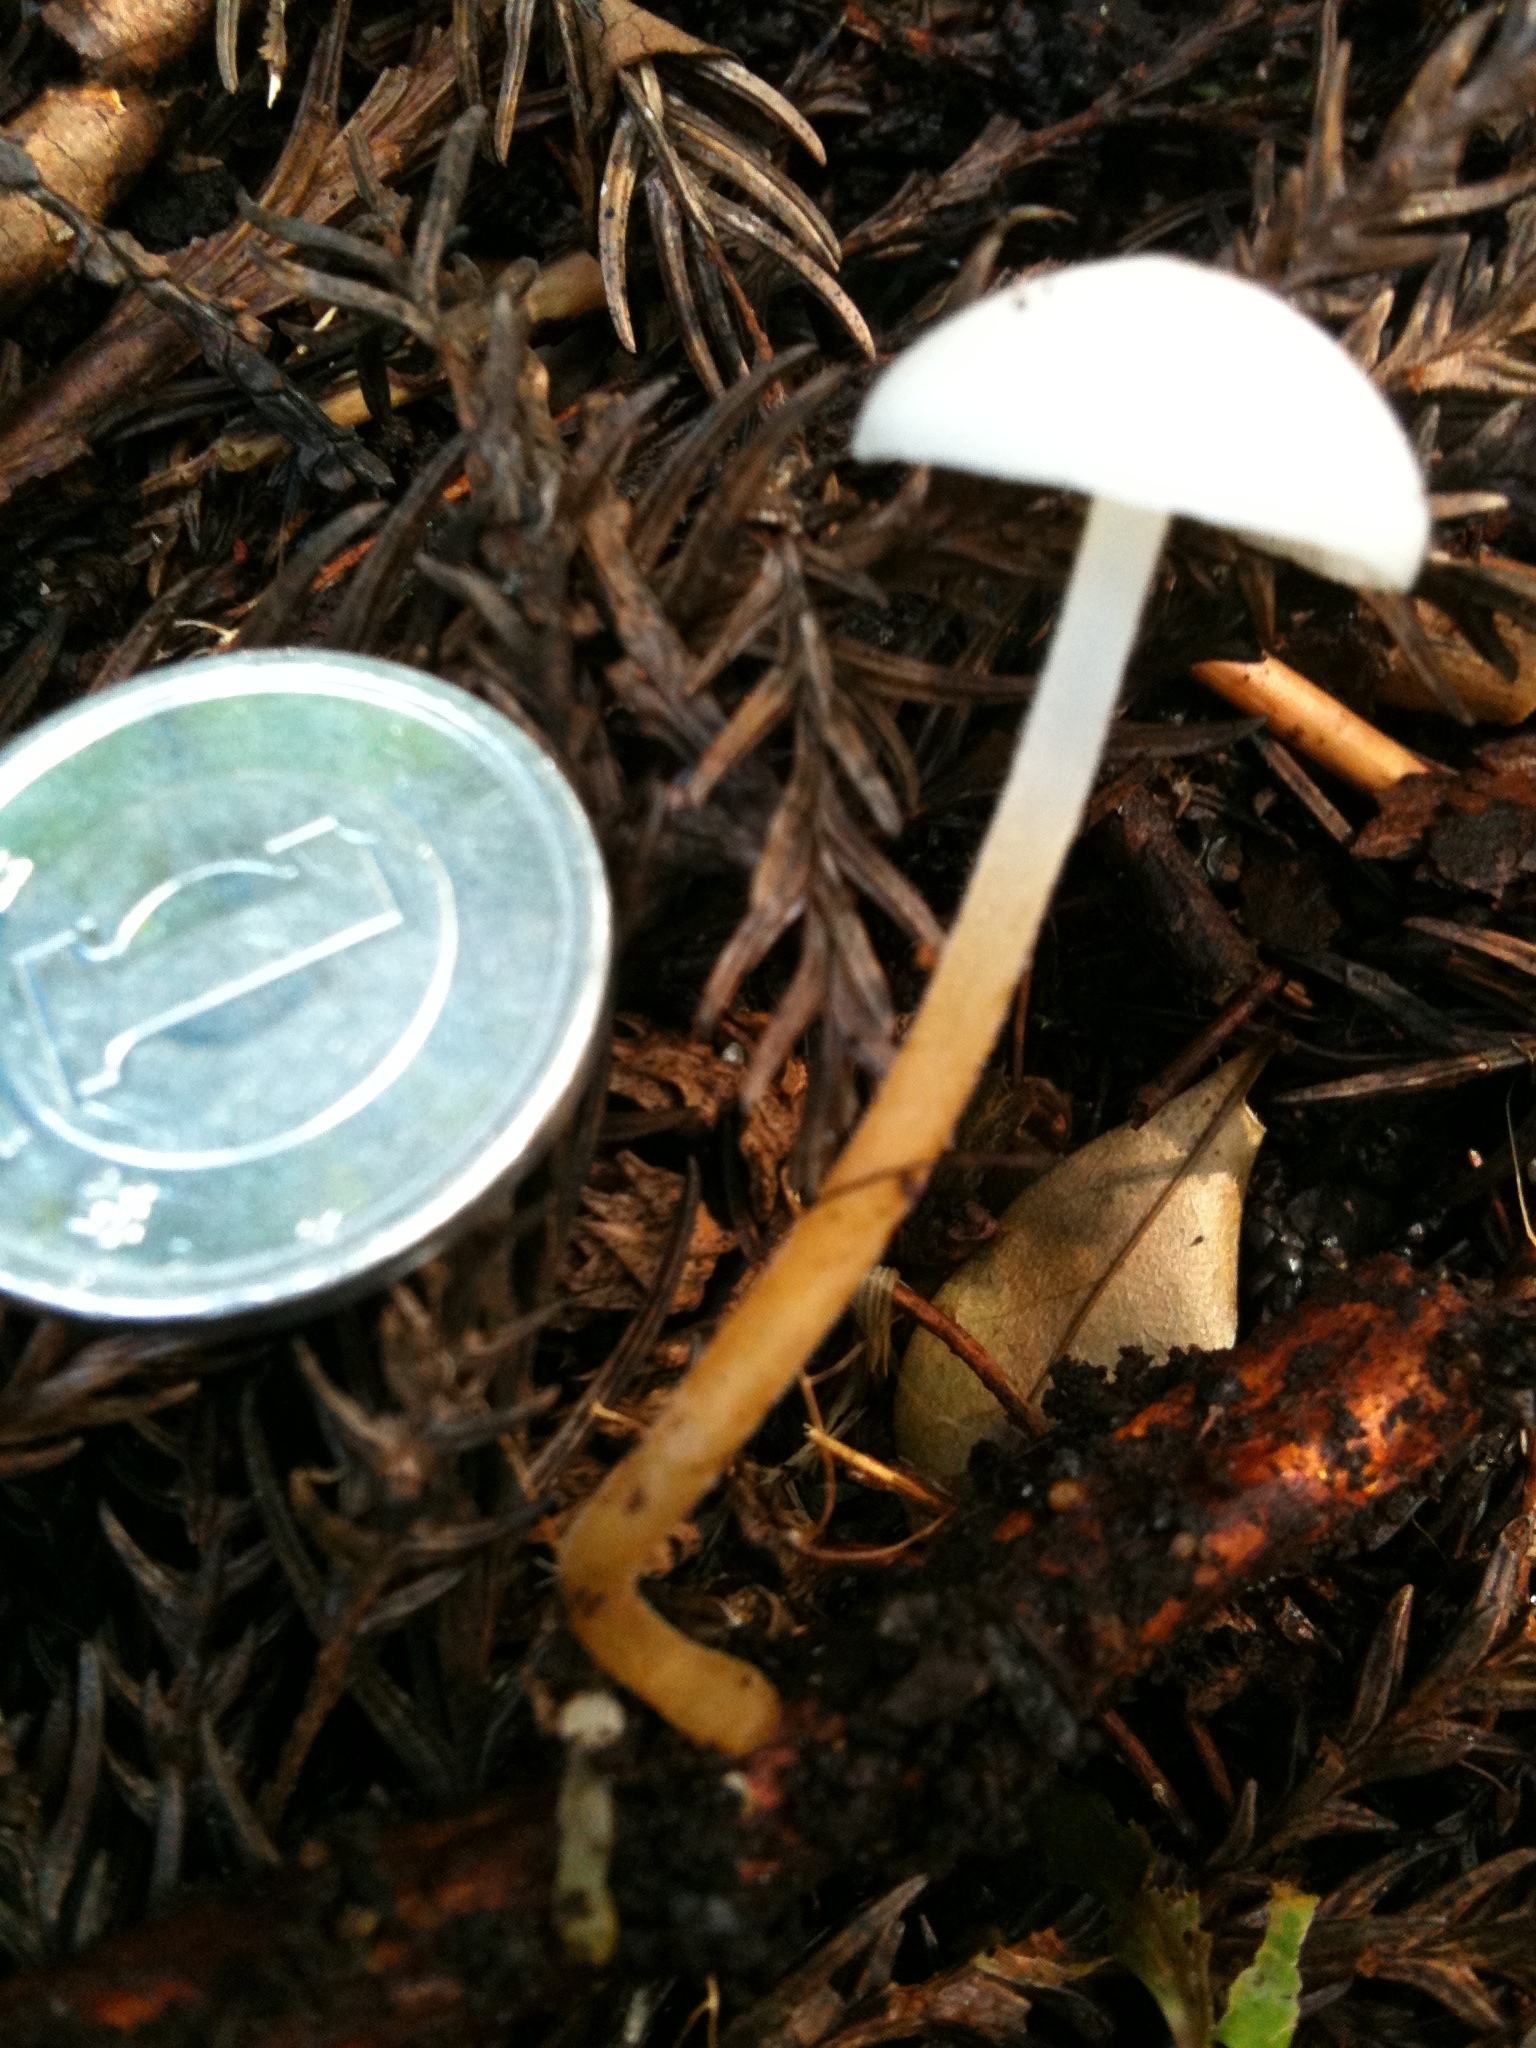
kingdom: Fungi
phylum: Basidiomycota
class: Agaricomycetes
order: Agaricales
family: Physalacriaceae
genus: Strobilurus
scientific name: Strobilurus ohshimae
